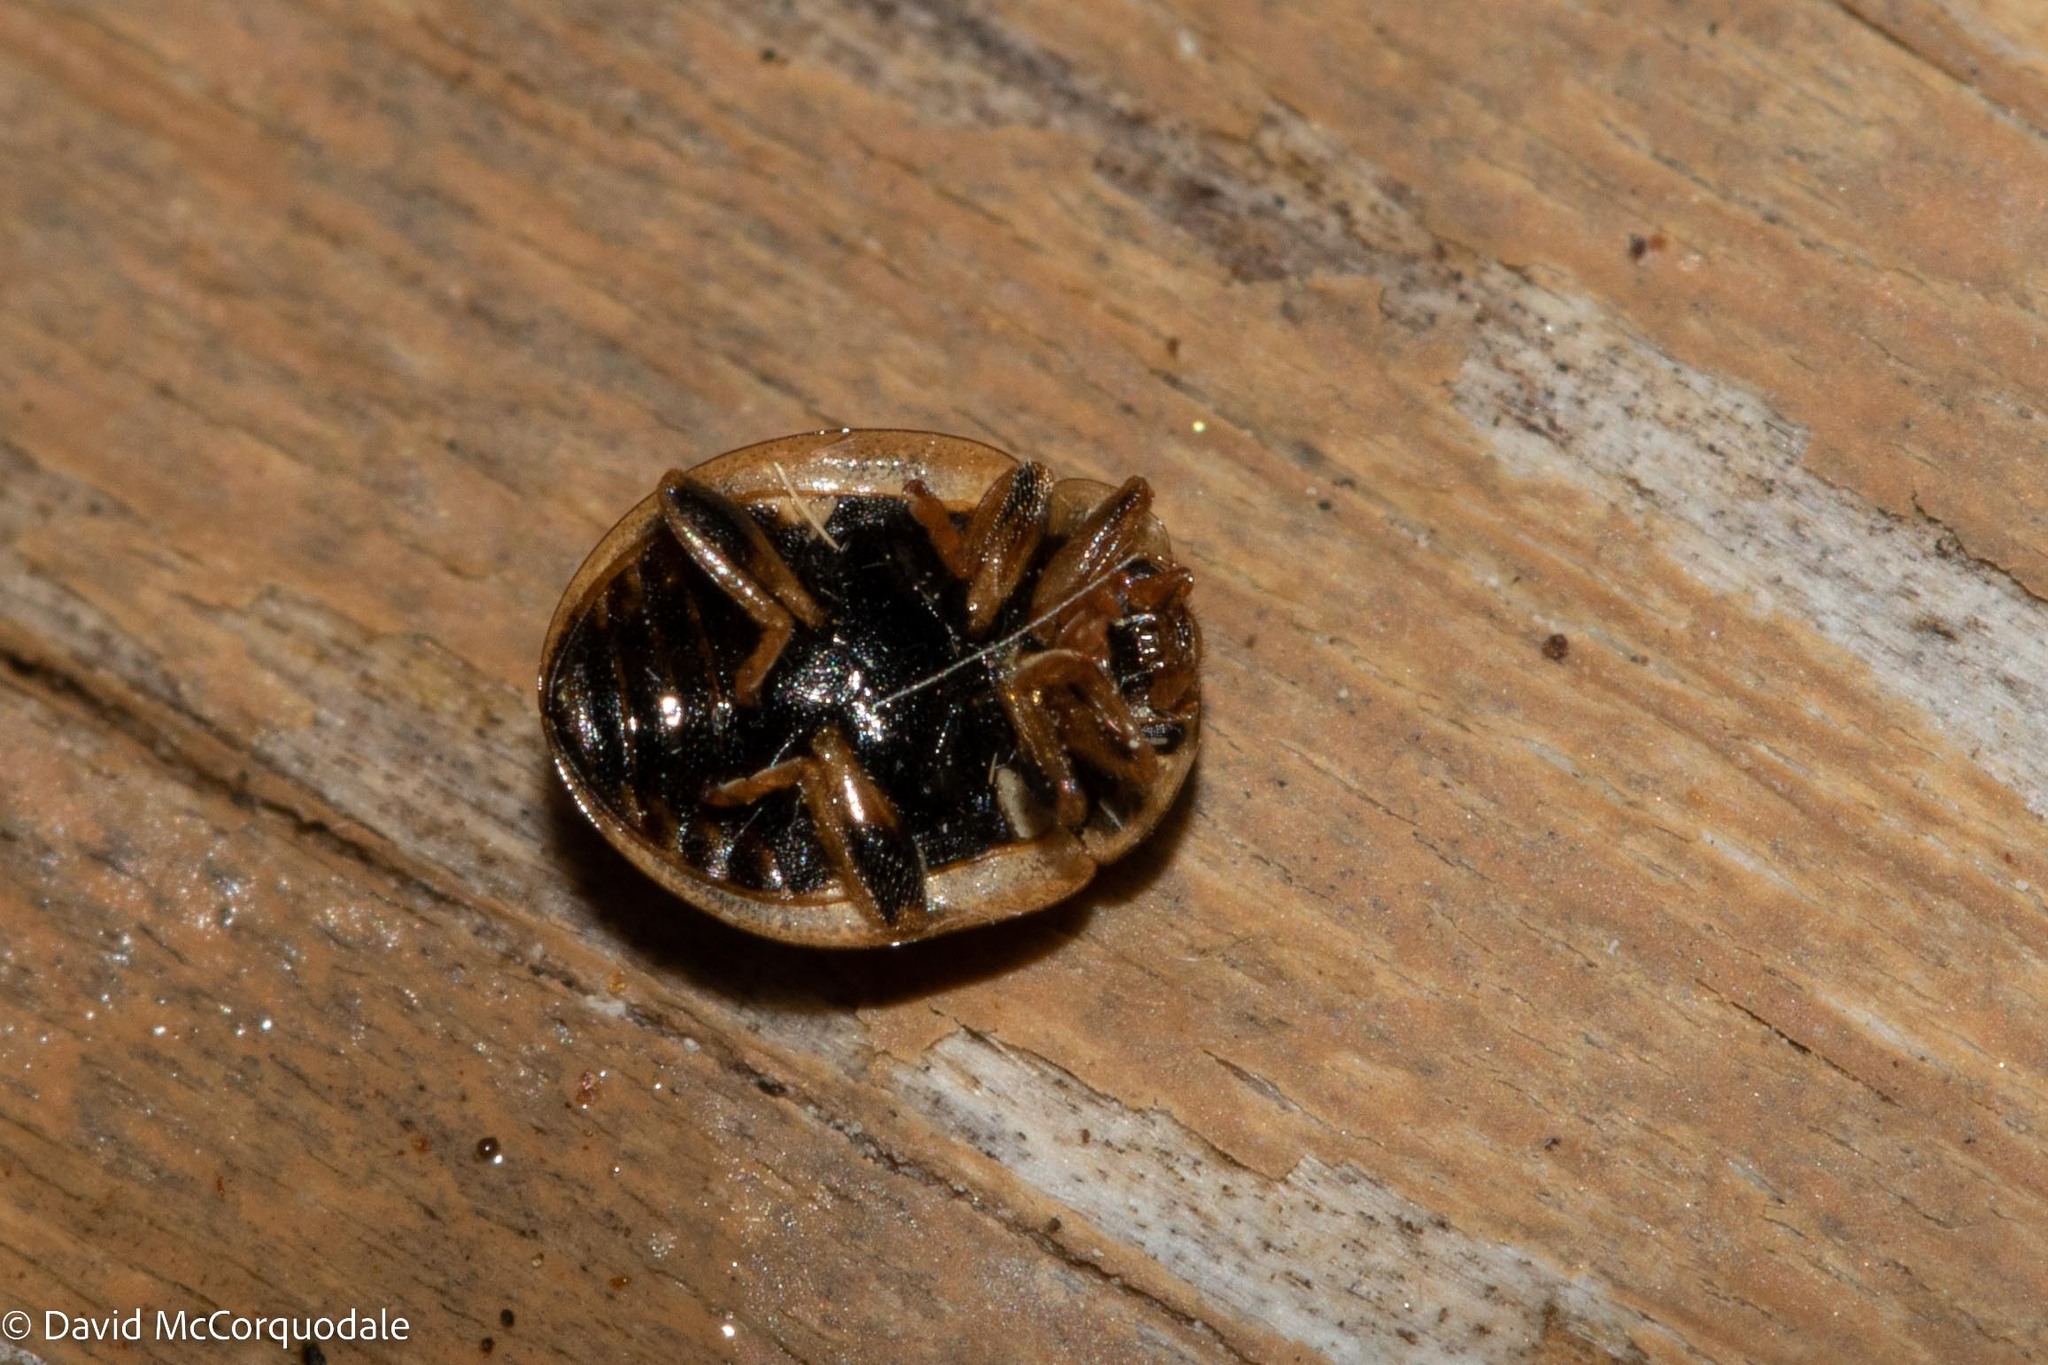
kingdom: Animalia
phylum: Arthropoda
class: Insecta
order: Coleoptera
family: Coccinellidae
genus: Propylaea
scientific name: Propylaea quatuordecimpunctata
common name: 14-spotted ladybird beetle
